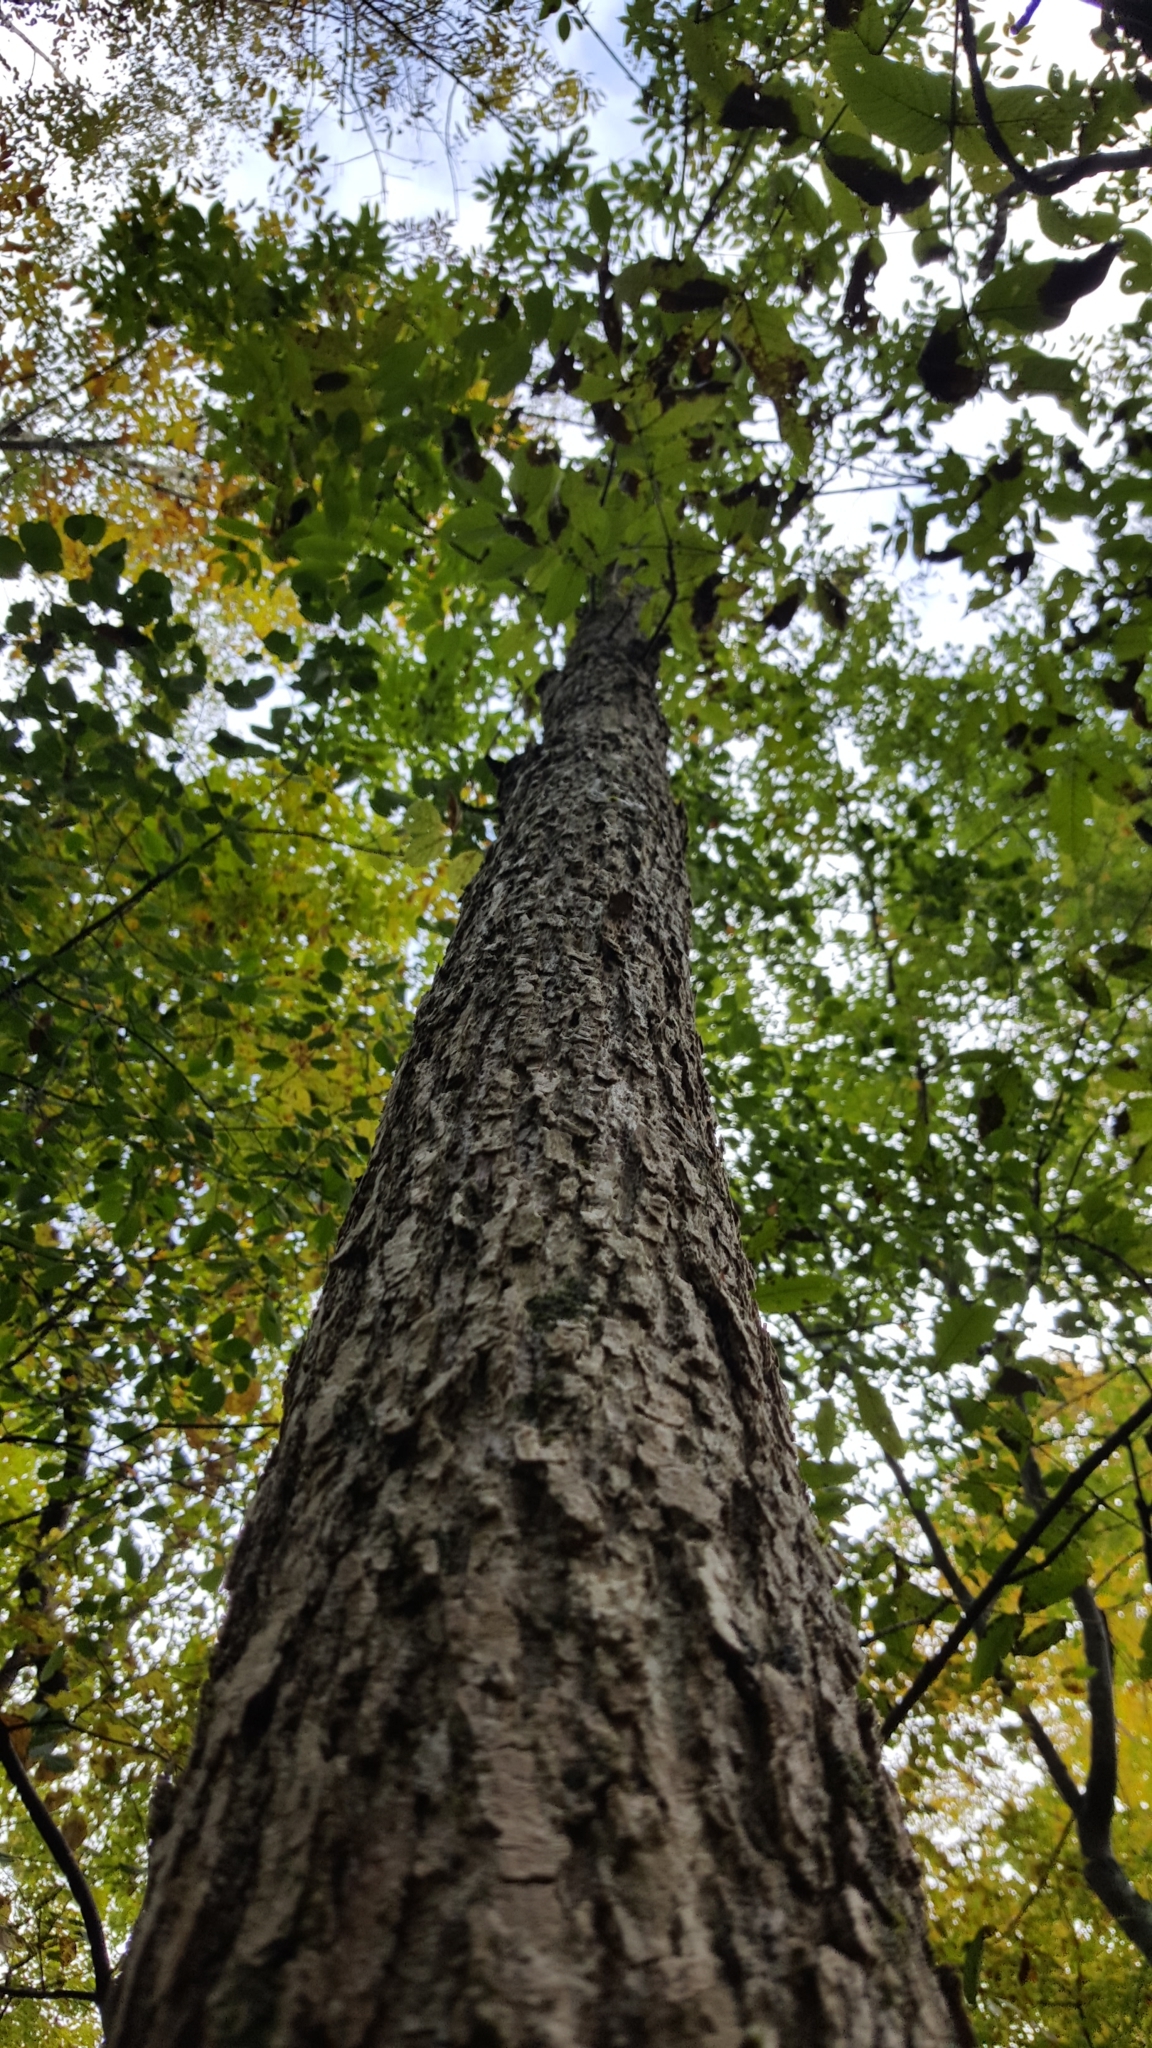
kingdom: Plantae
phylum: Tracheophyta
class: Magnoliopsida
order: Lamiales
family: Oleaceae
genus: Fraxinus
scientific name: Fraxinus nigra
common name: Black ash
